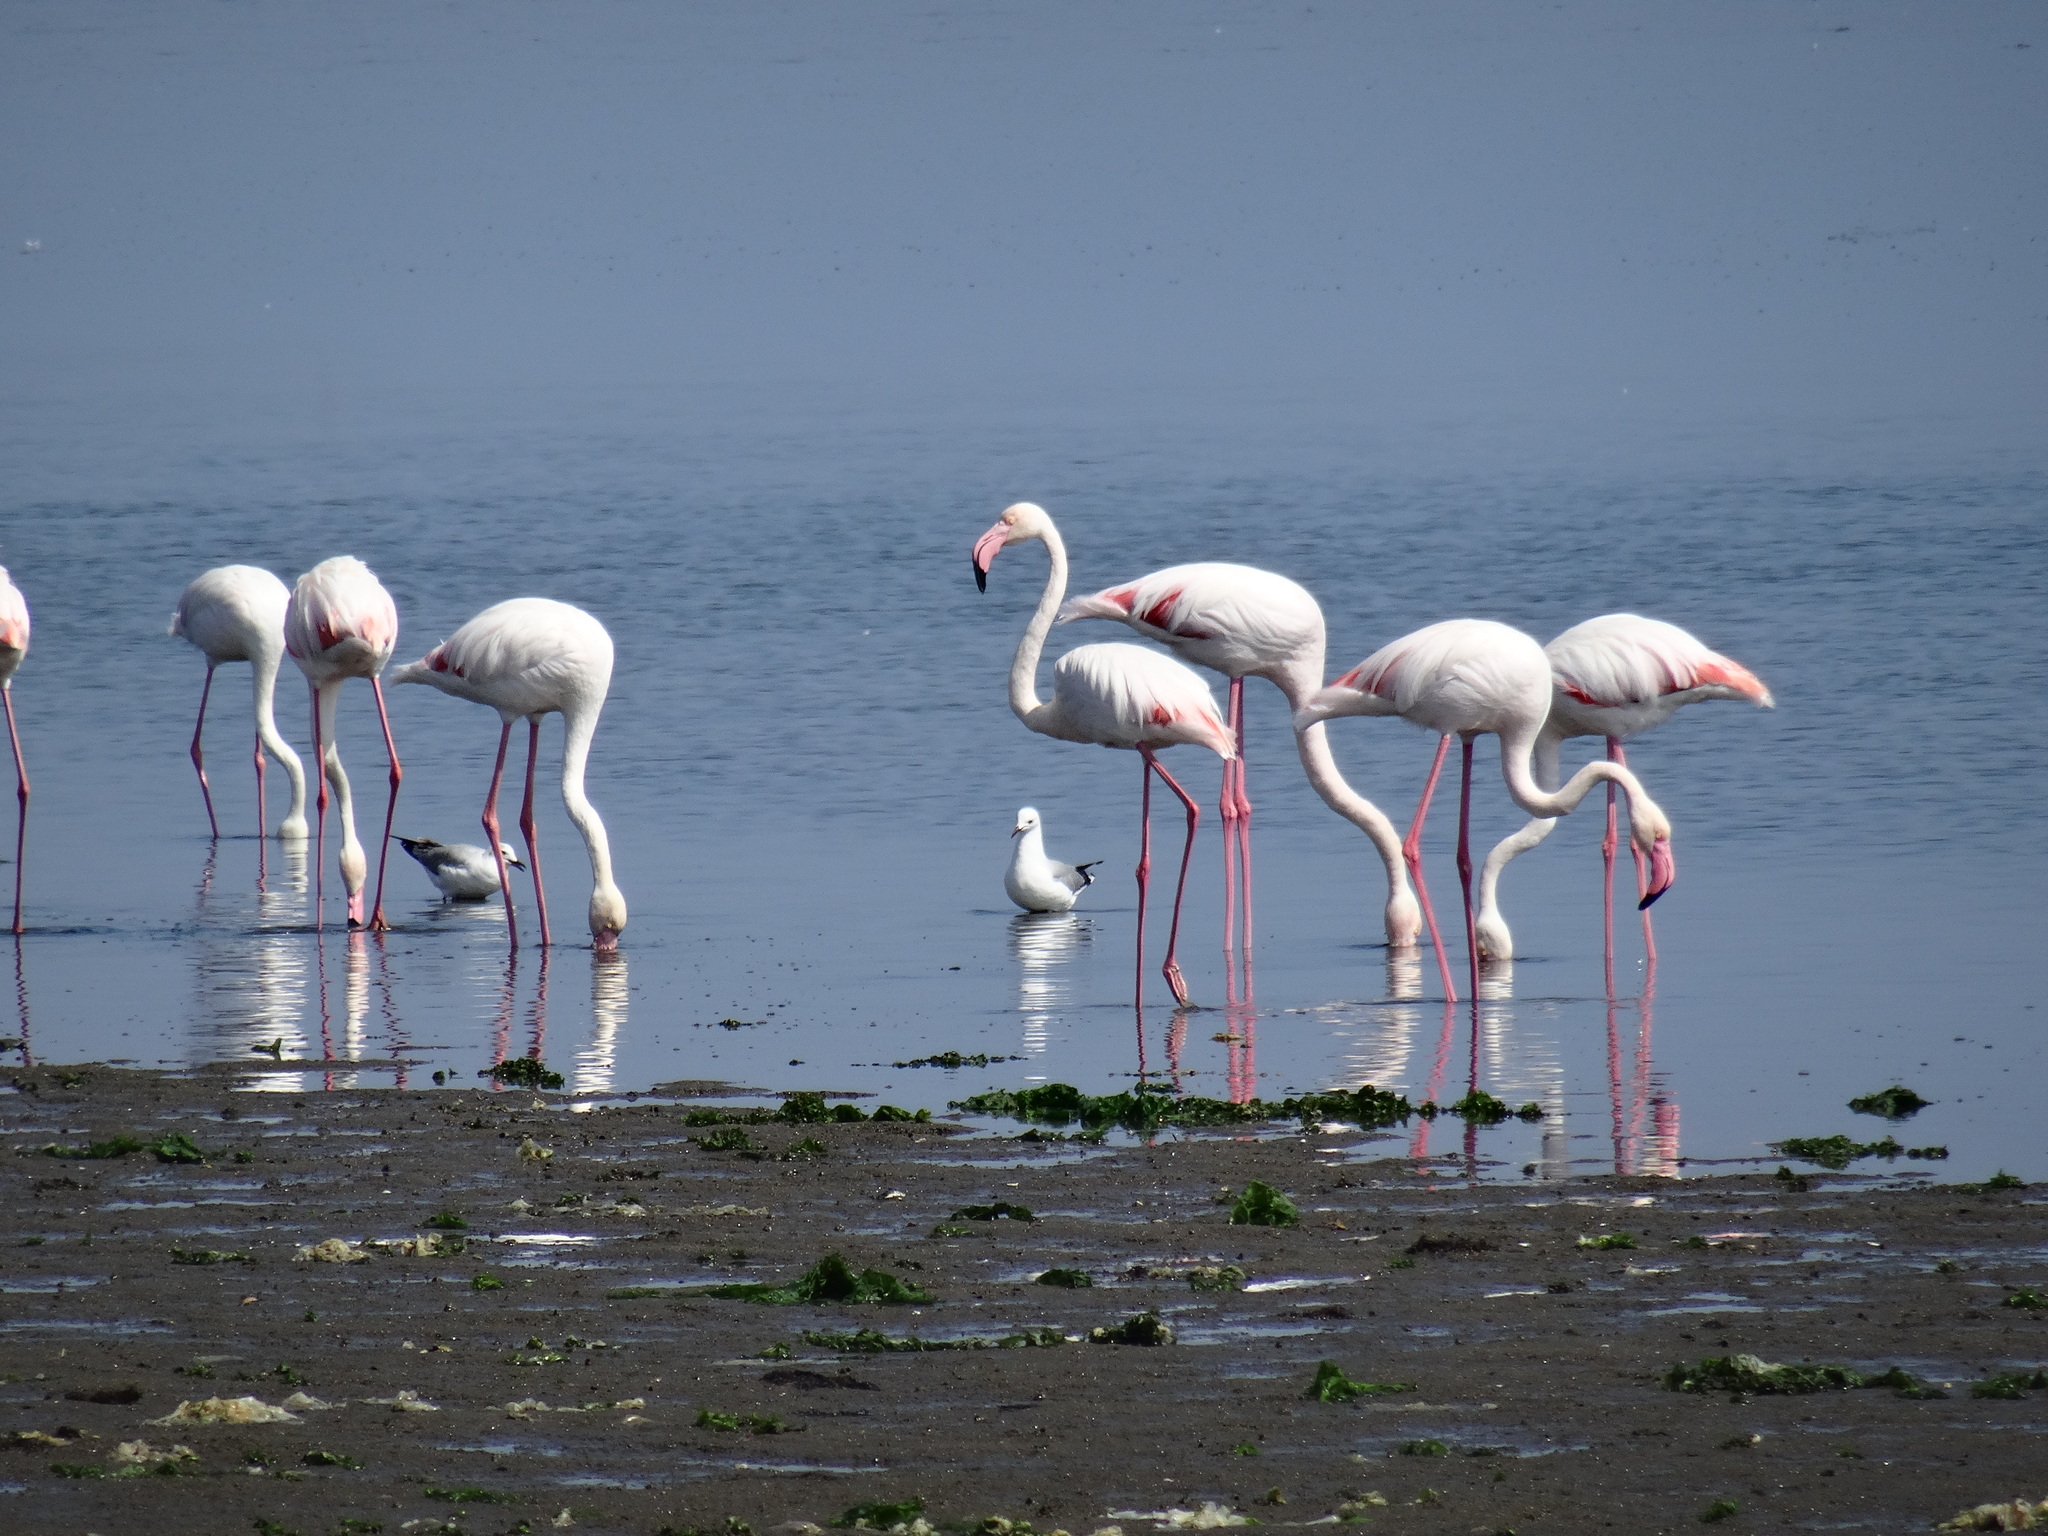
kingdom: Animalia
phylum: Chordata
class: Aves
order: Phoenicopteriformes
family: Phoenicopteridae
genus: Phoenicopterus
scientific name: Phoenicopterus roseus
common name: Greater flamingo
